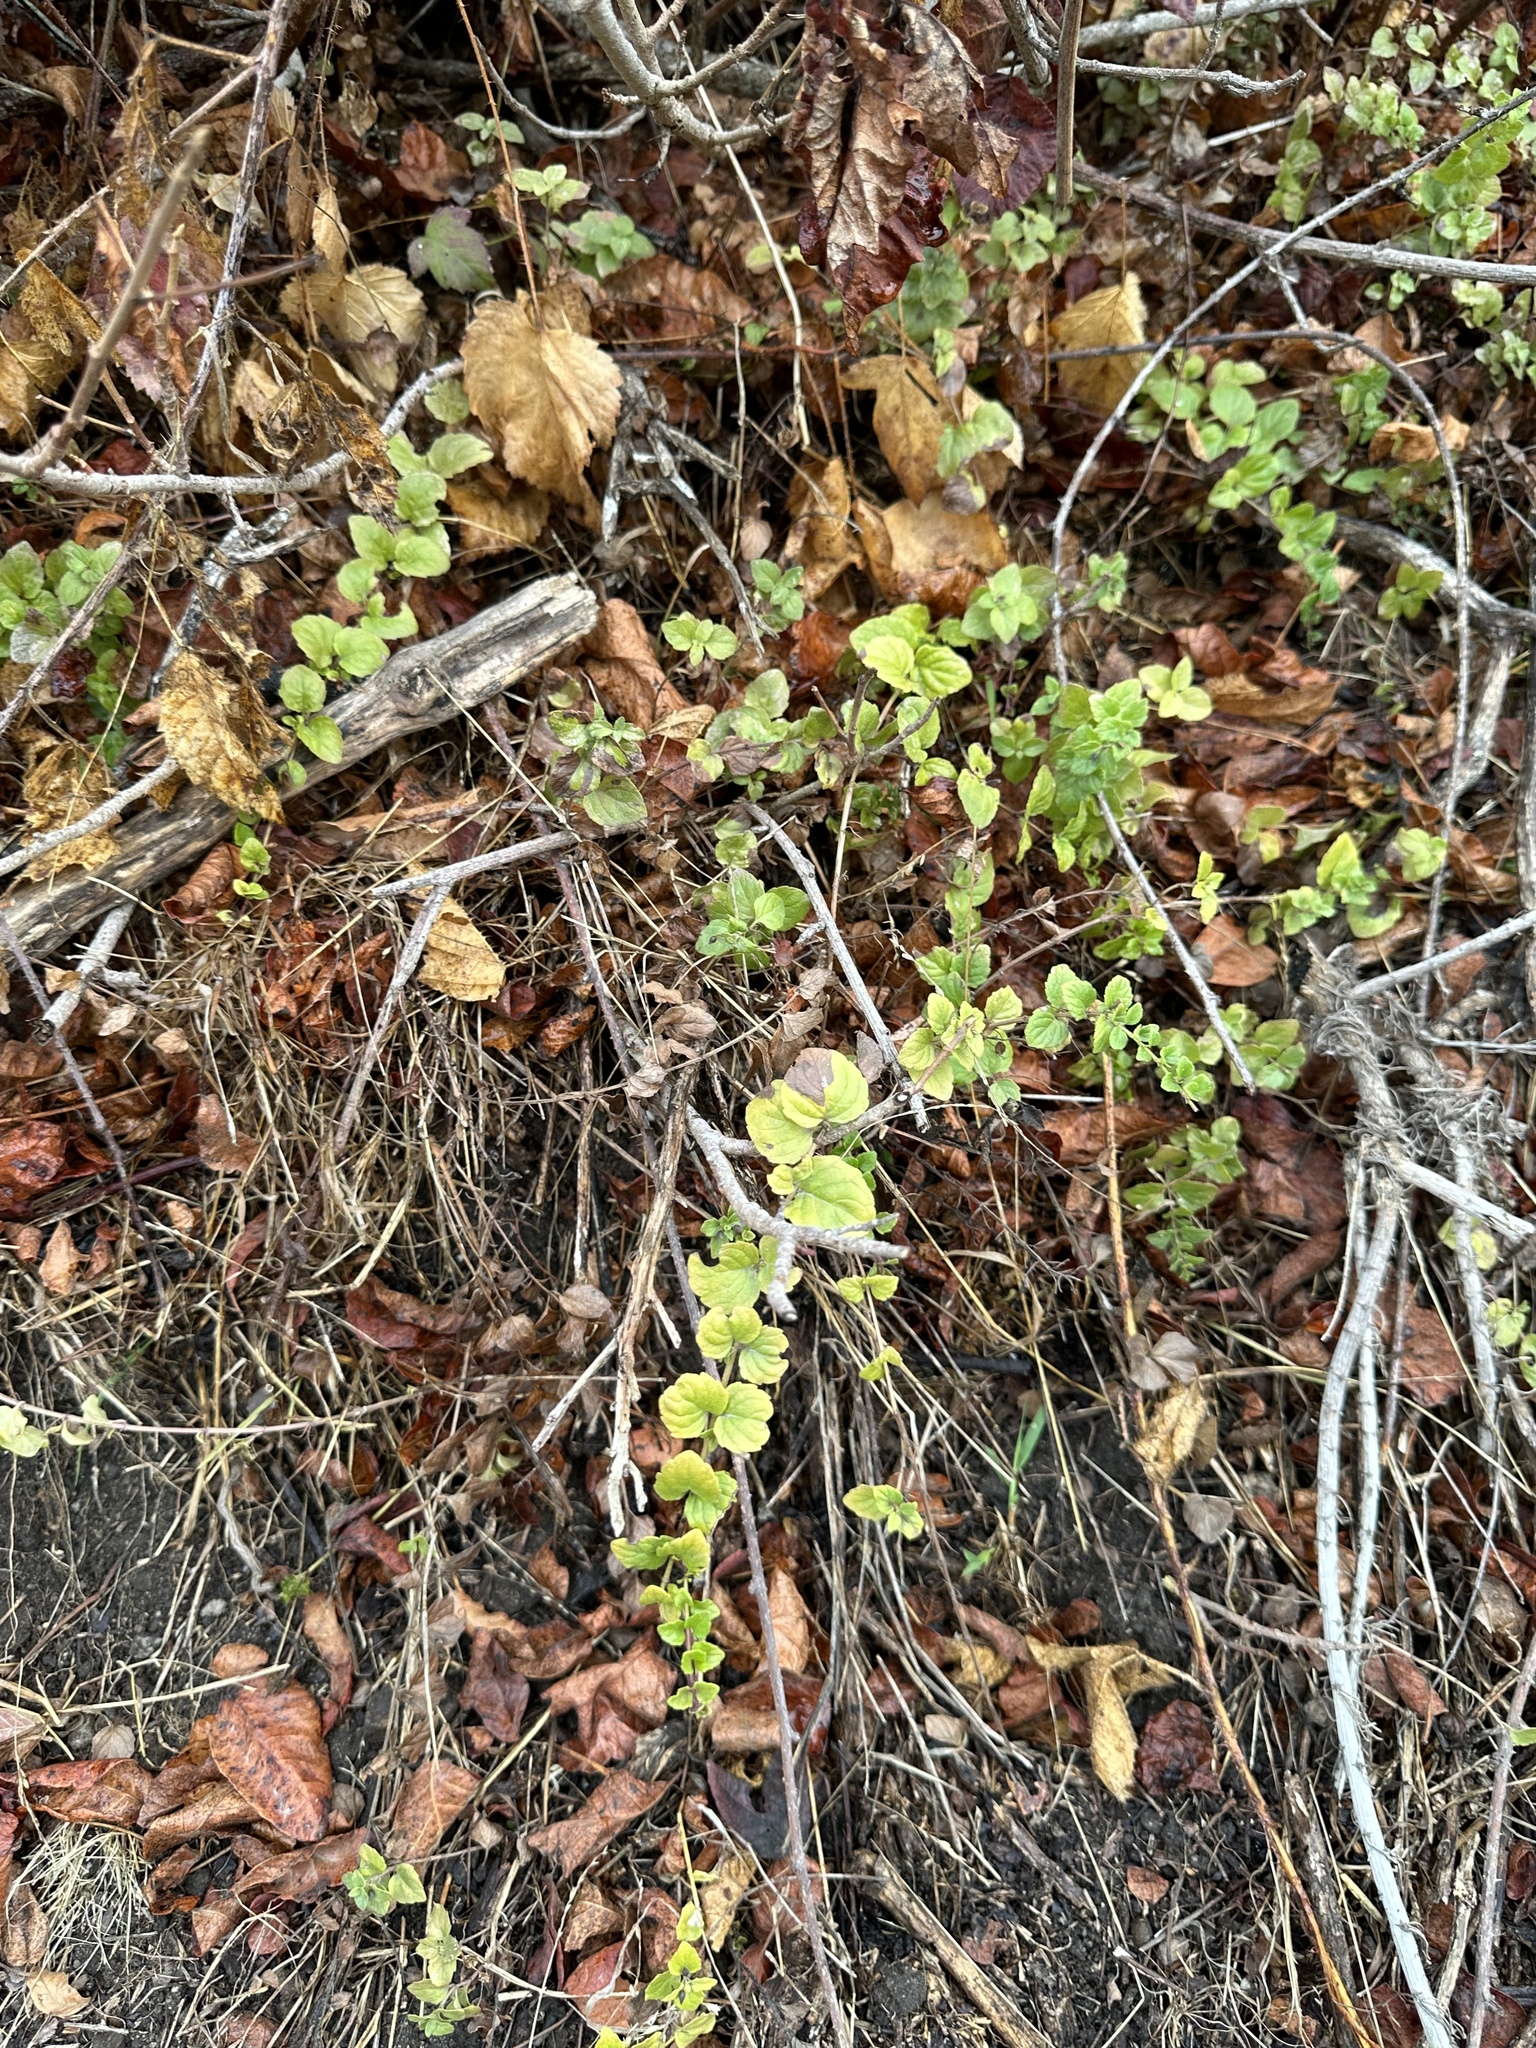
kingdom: Plantae
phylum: Tracheophyta
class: Magnoliopsida
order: Lamiales
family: Lamiaceae
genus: Micromeria
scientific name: Micromeria douglasii
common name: Yerba buena
